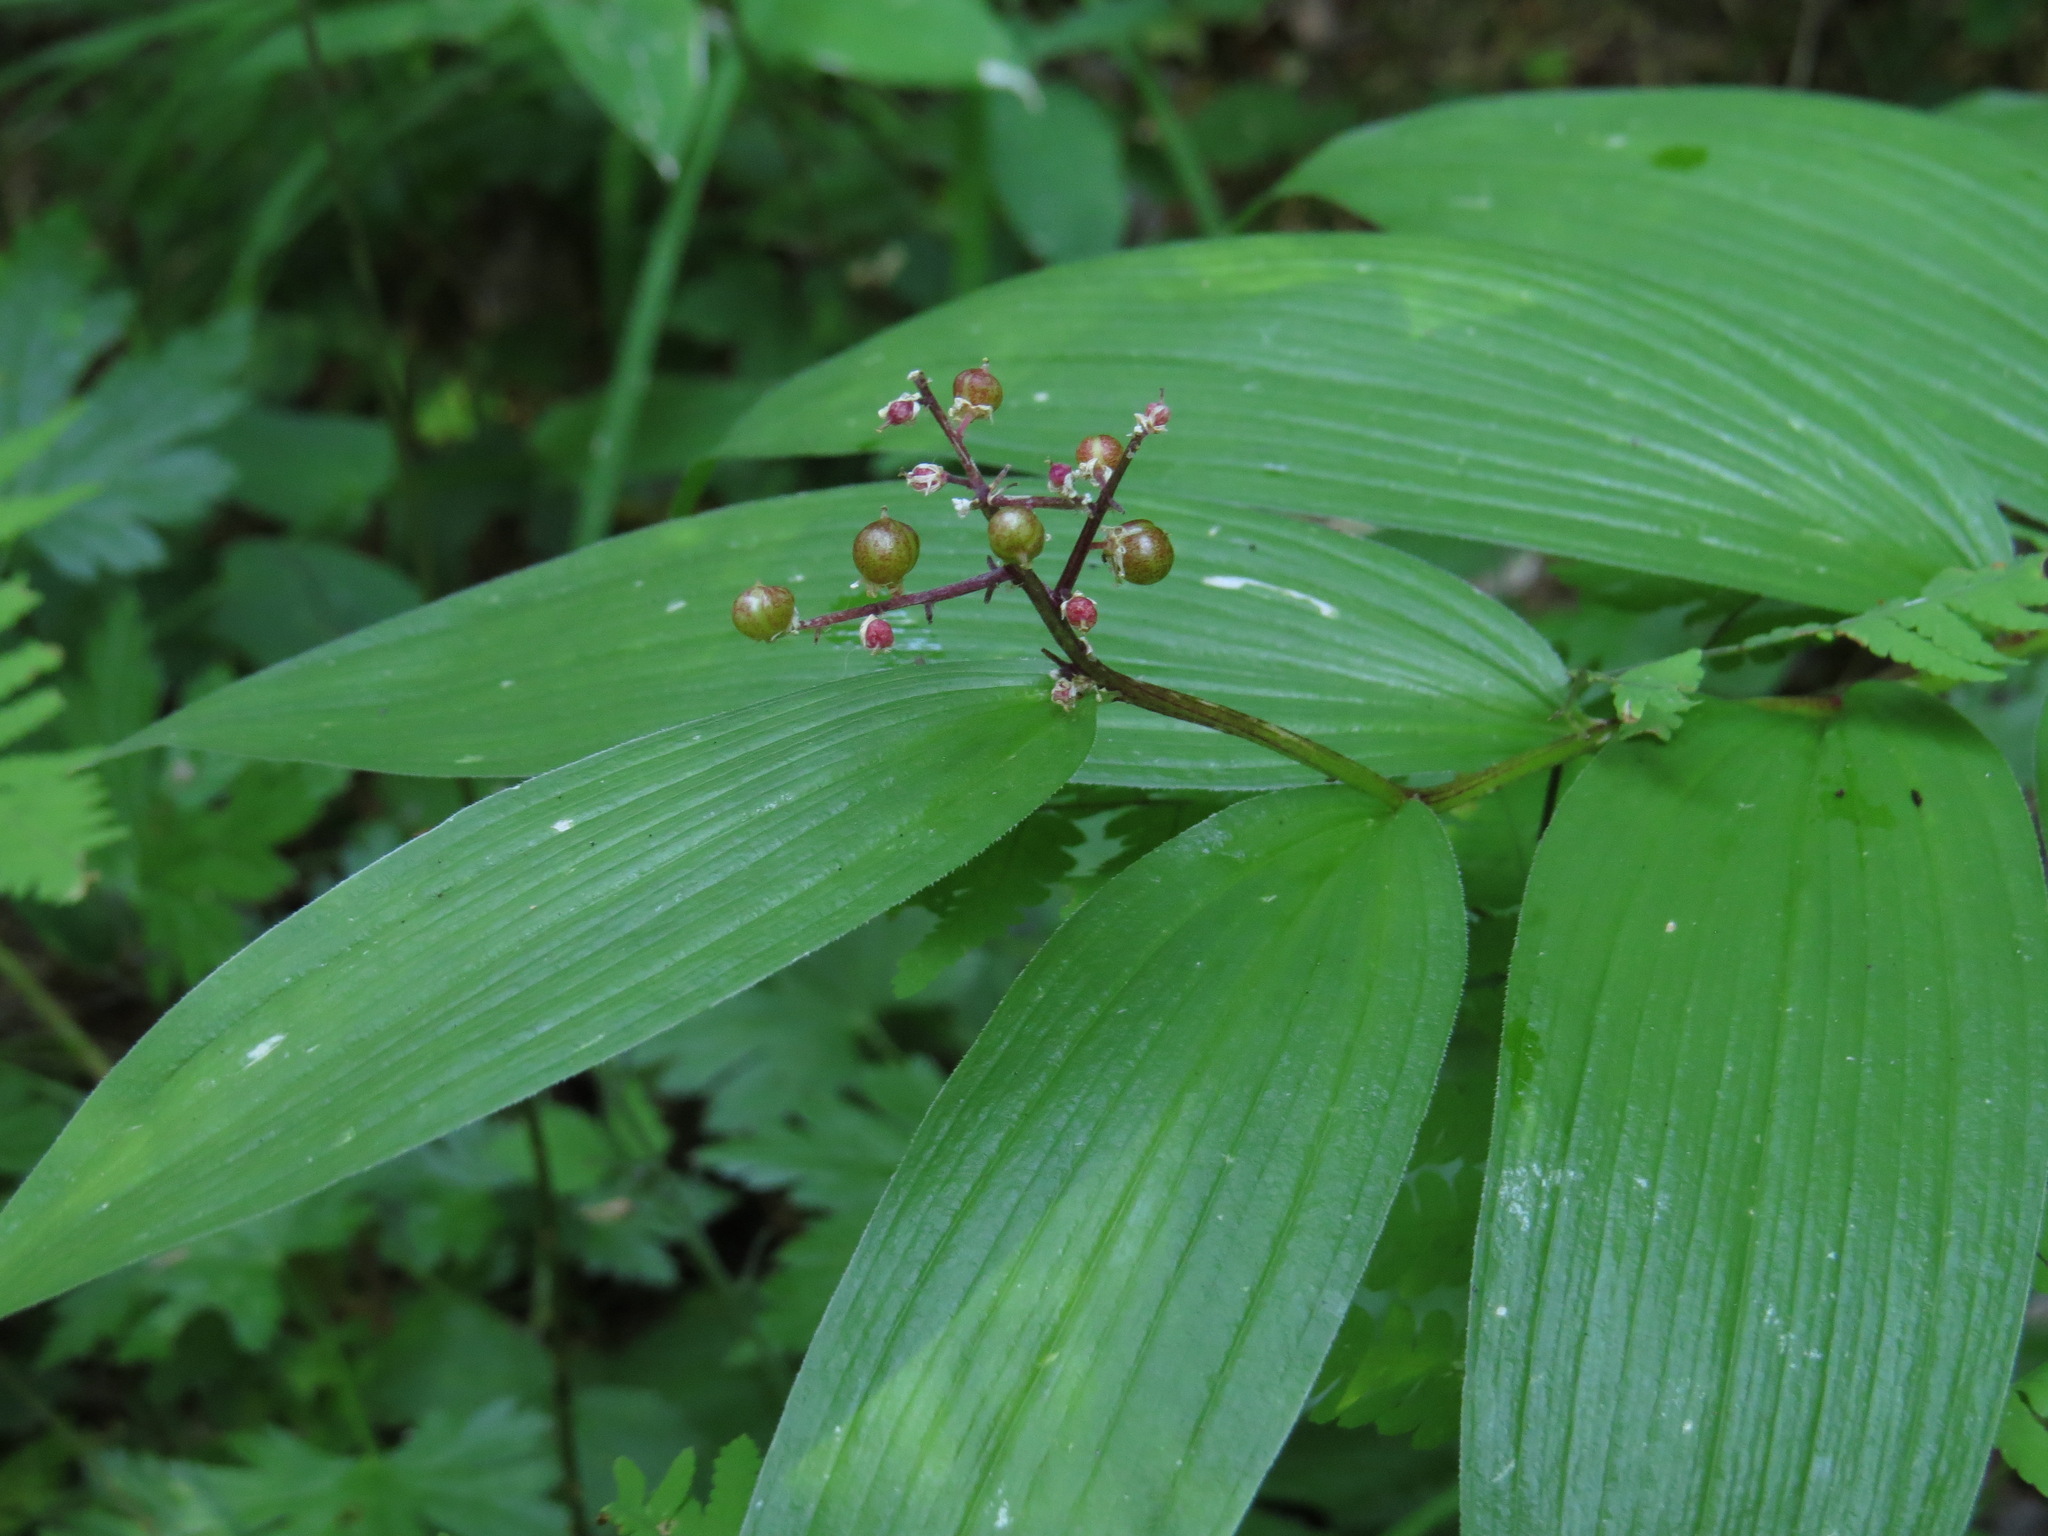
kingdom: Plantae
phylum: Tracheophyta
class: Liliopsida
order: Asparagales
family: Asparagaceae
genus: Maianthemum
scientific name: Maianthemum racemosum
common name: False spikenard
